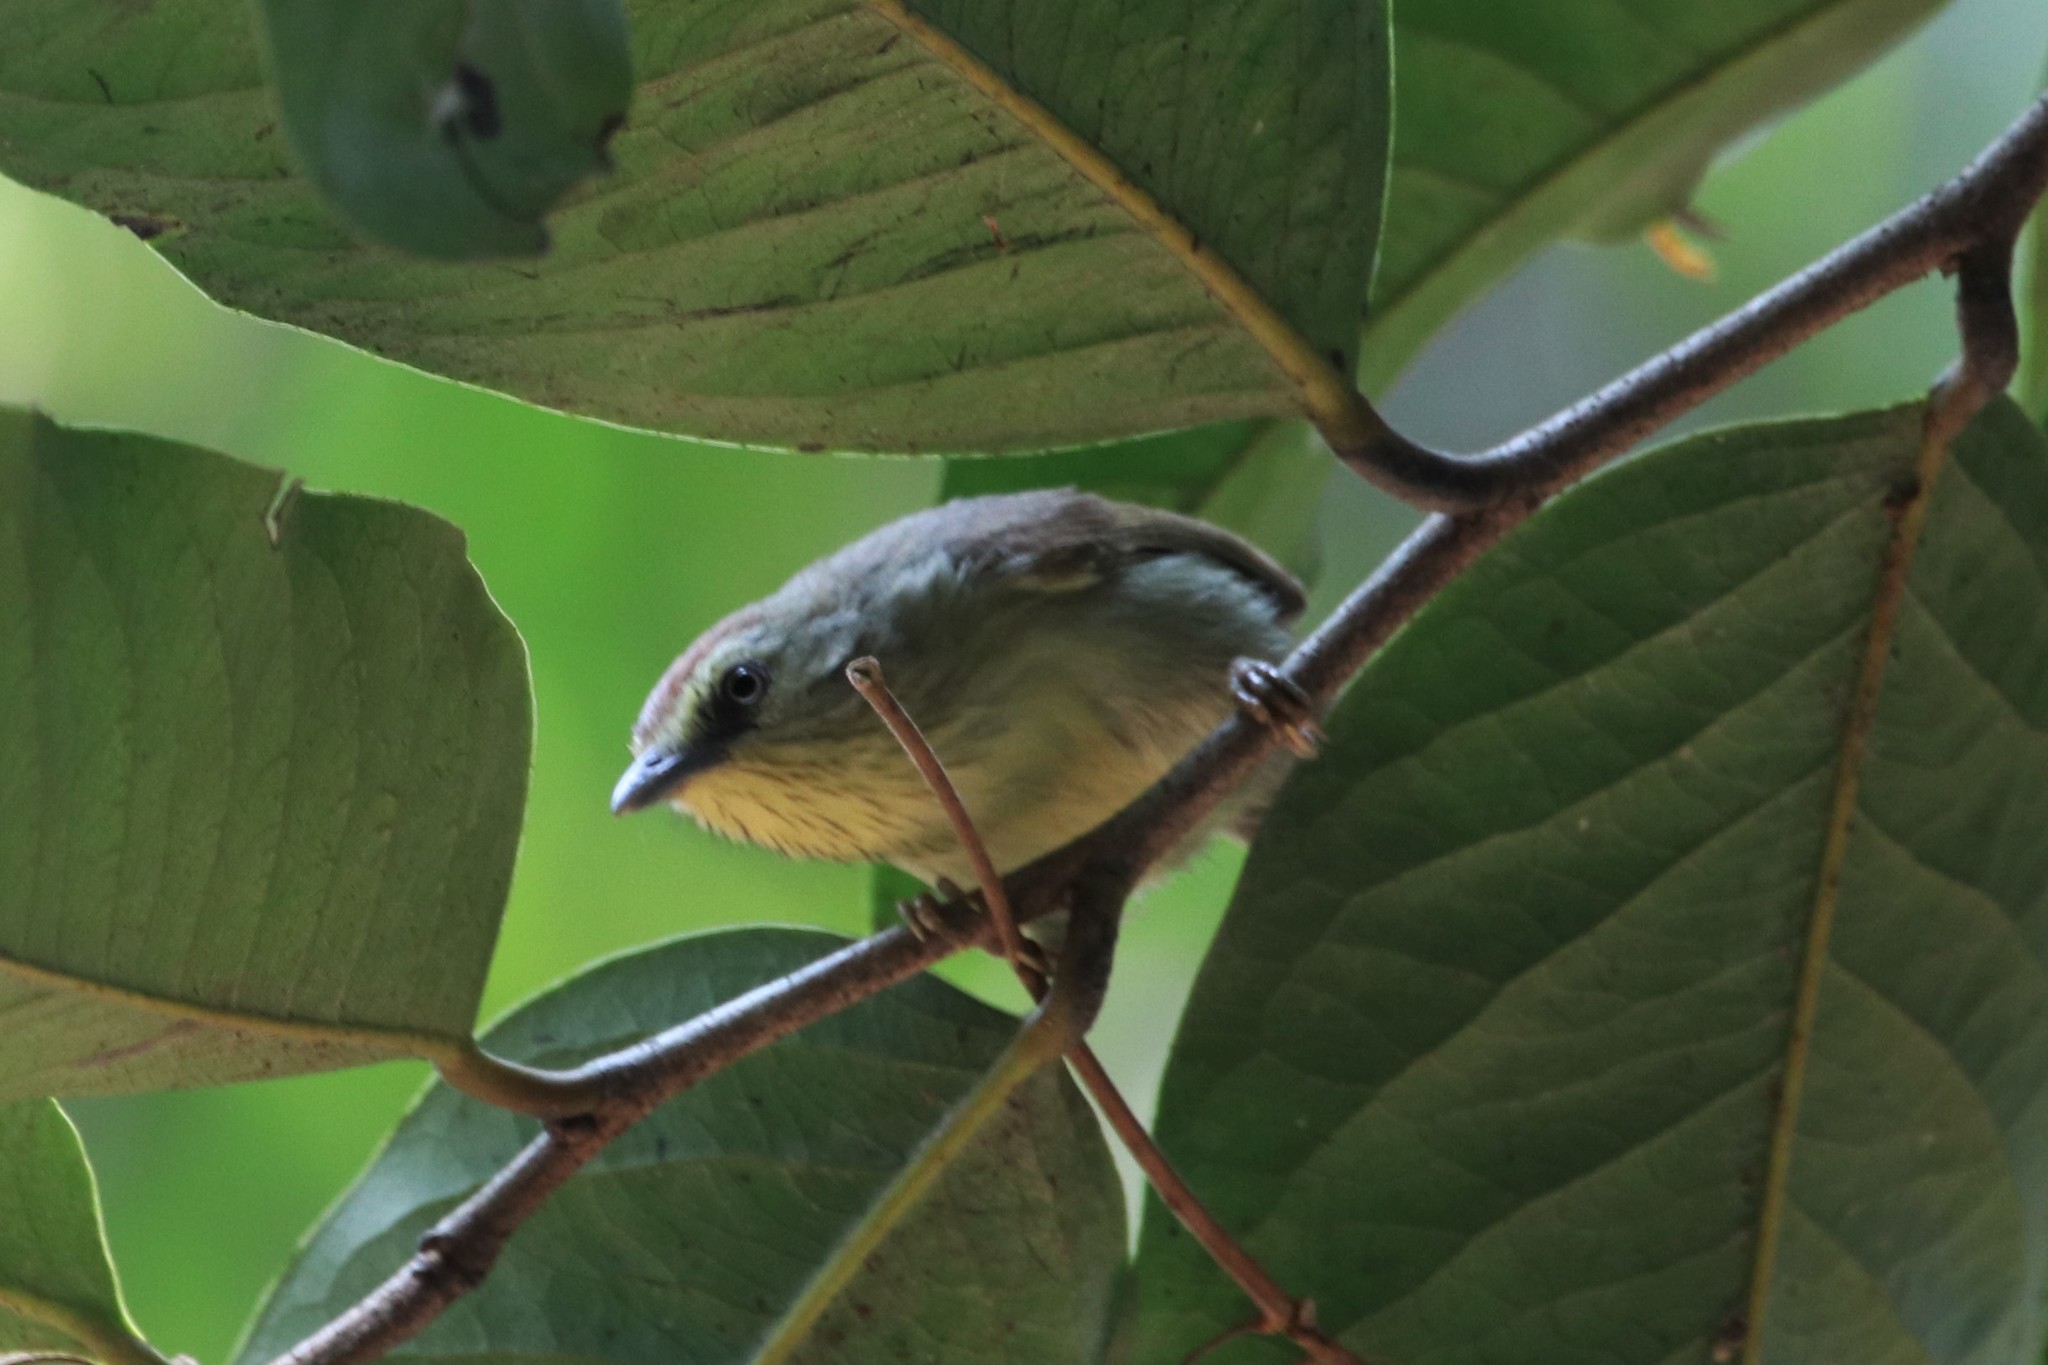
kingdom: Animalia
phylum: Chordata
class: Aves
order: Passeriformes
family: Timaliidae
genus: Macronus
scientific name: Macronus gularis
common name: Striped tit-babbler
